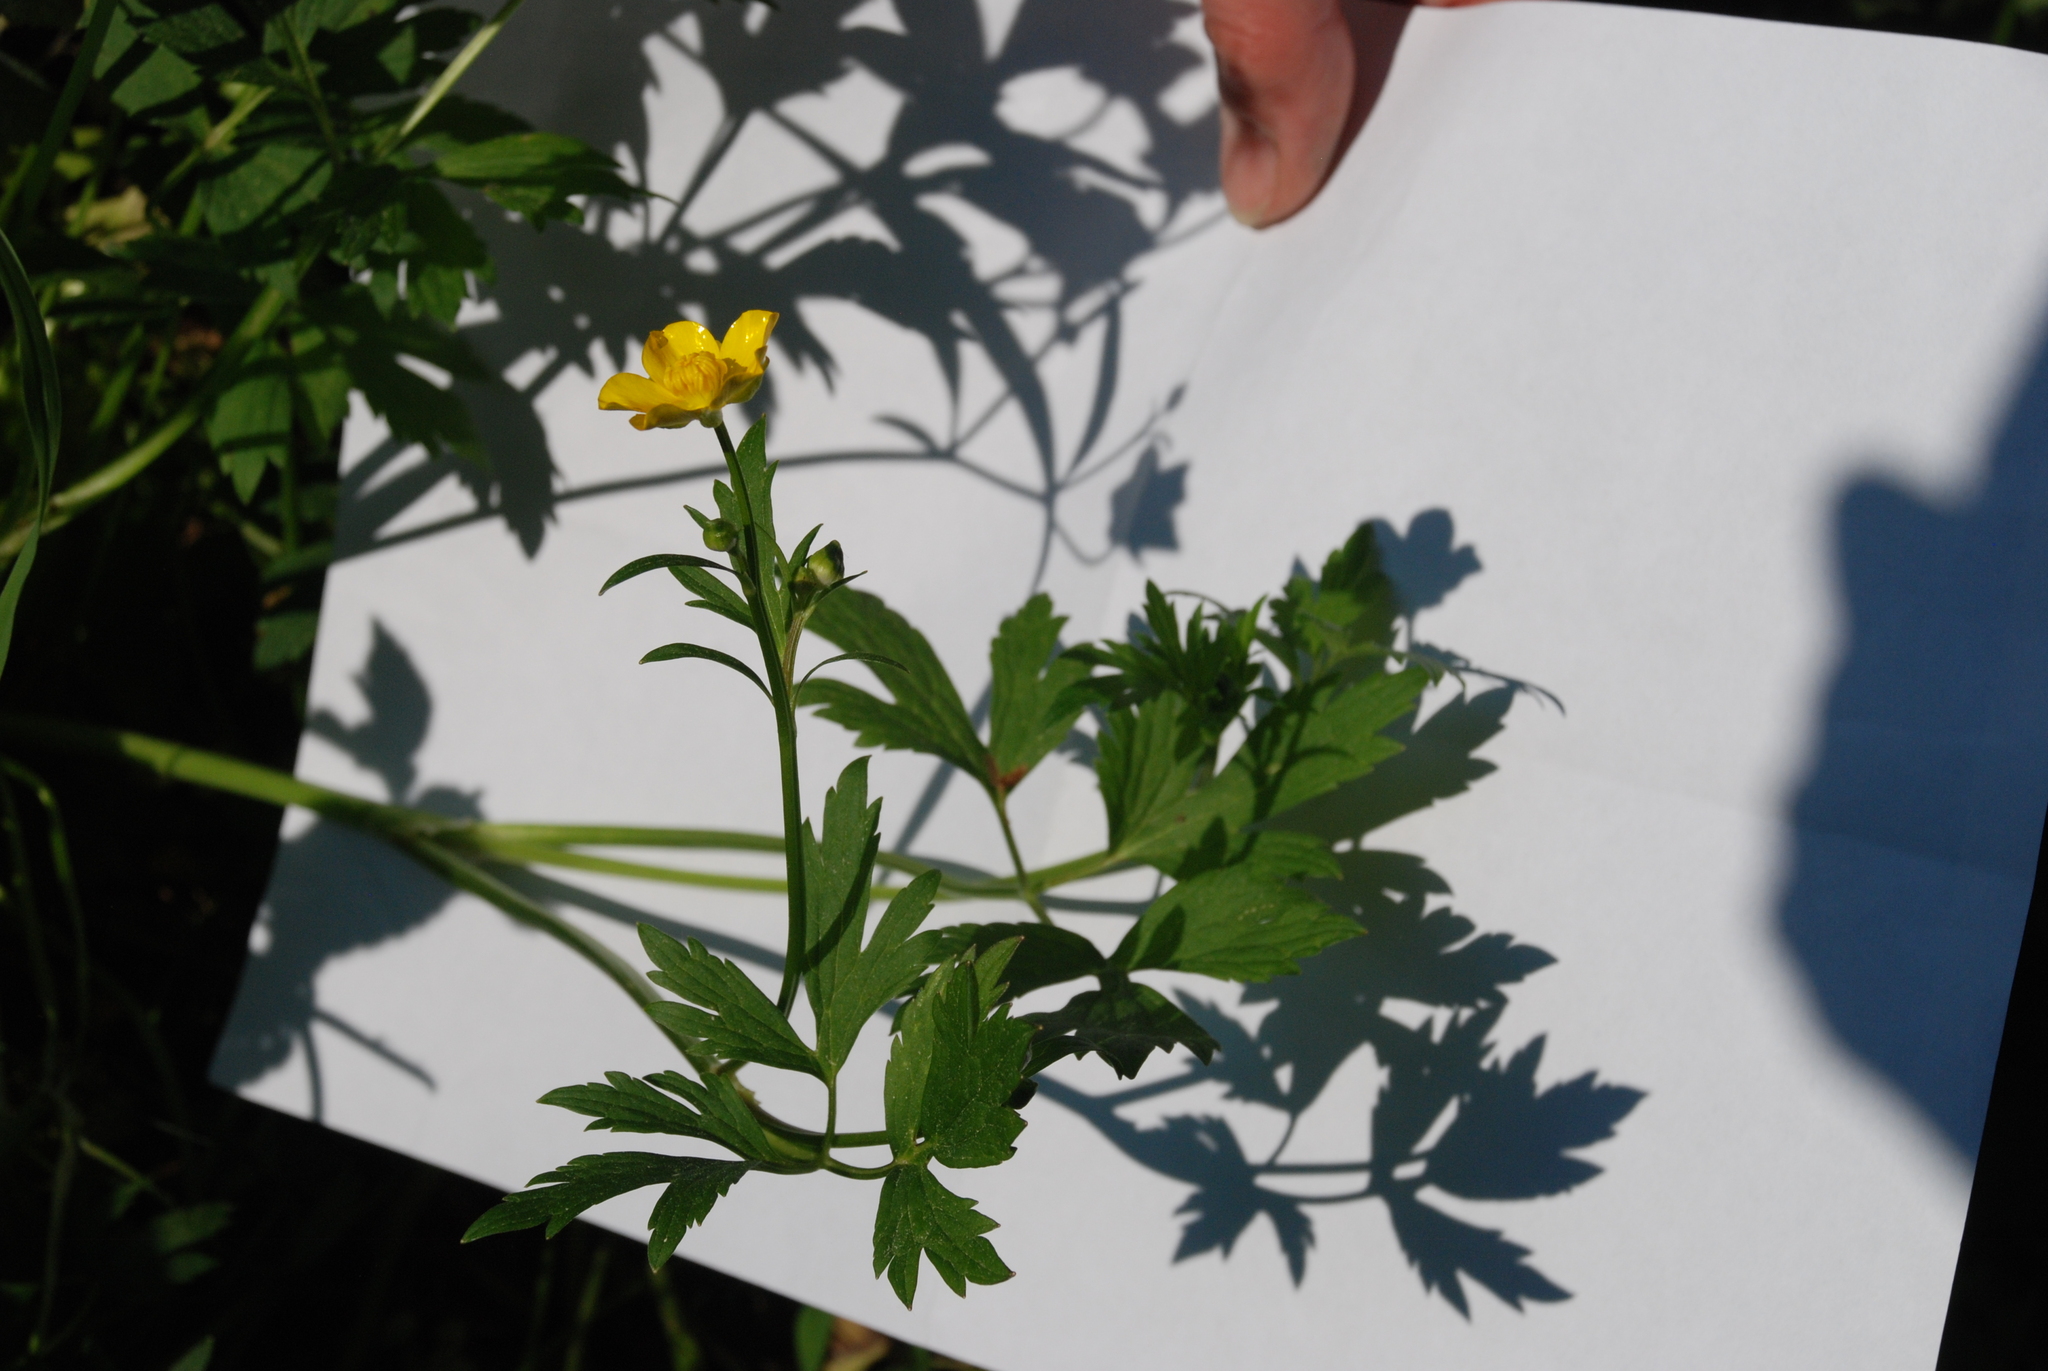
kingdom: Plantae
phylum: Tracheophyta
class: Magnoliopsida
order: Ranunculales
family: Ranunculaceae
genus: Ranunculus
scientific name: Ranunculus repens
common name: Creeping buttercup
